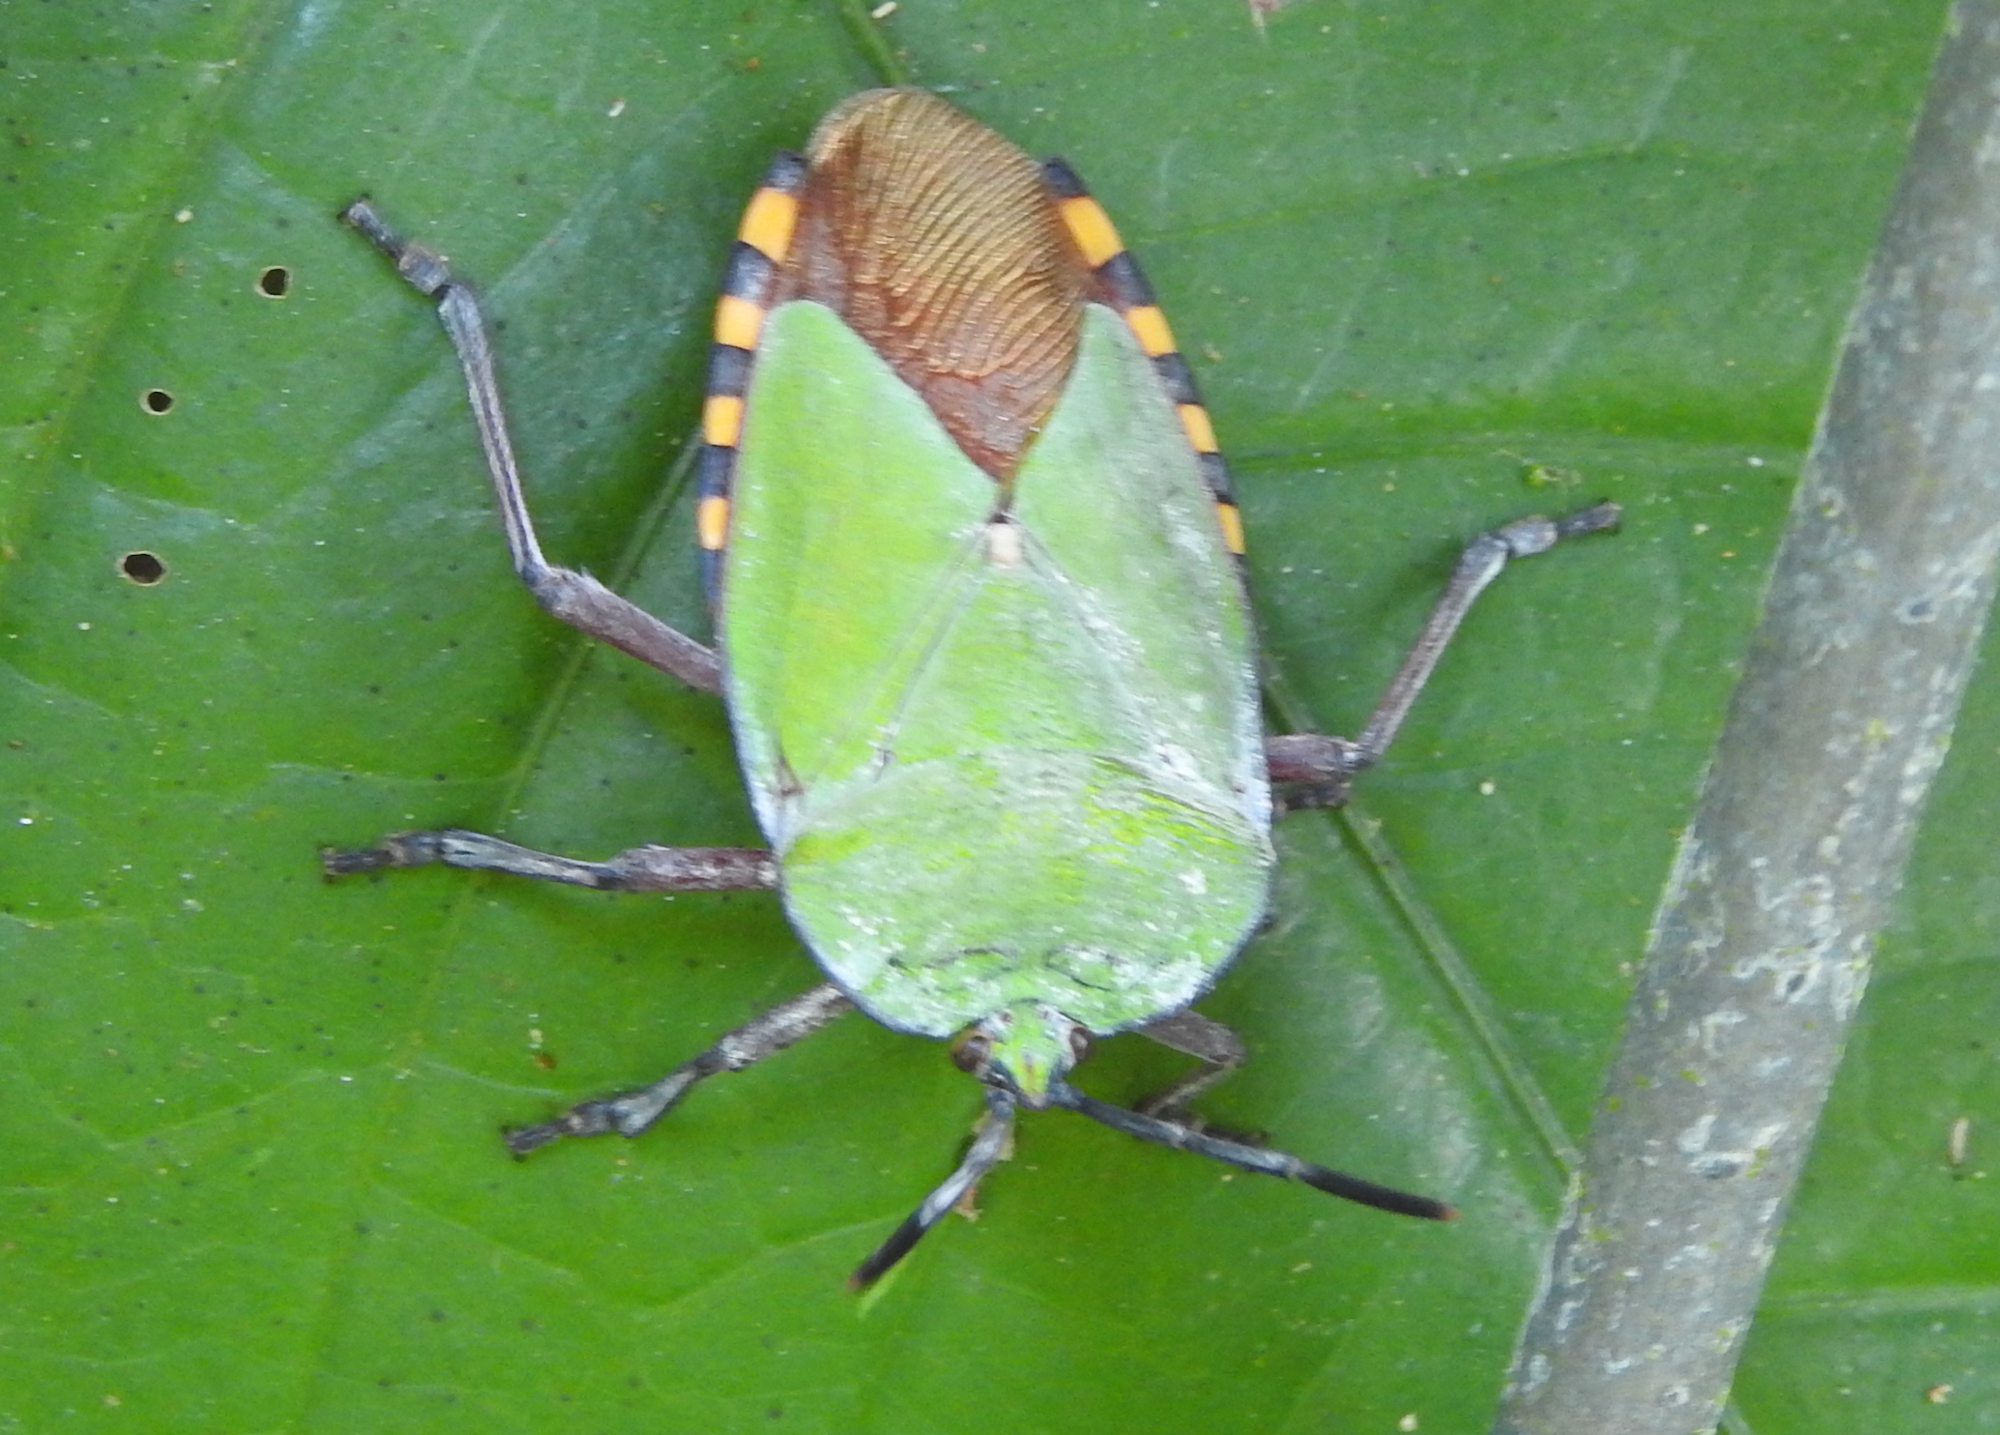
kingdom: Animalia
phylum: Arthropoda
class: Insecta
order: Hemiptera
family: Tessaratomidae
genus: Pycanum
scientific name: Pycanum alternatum
